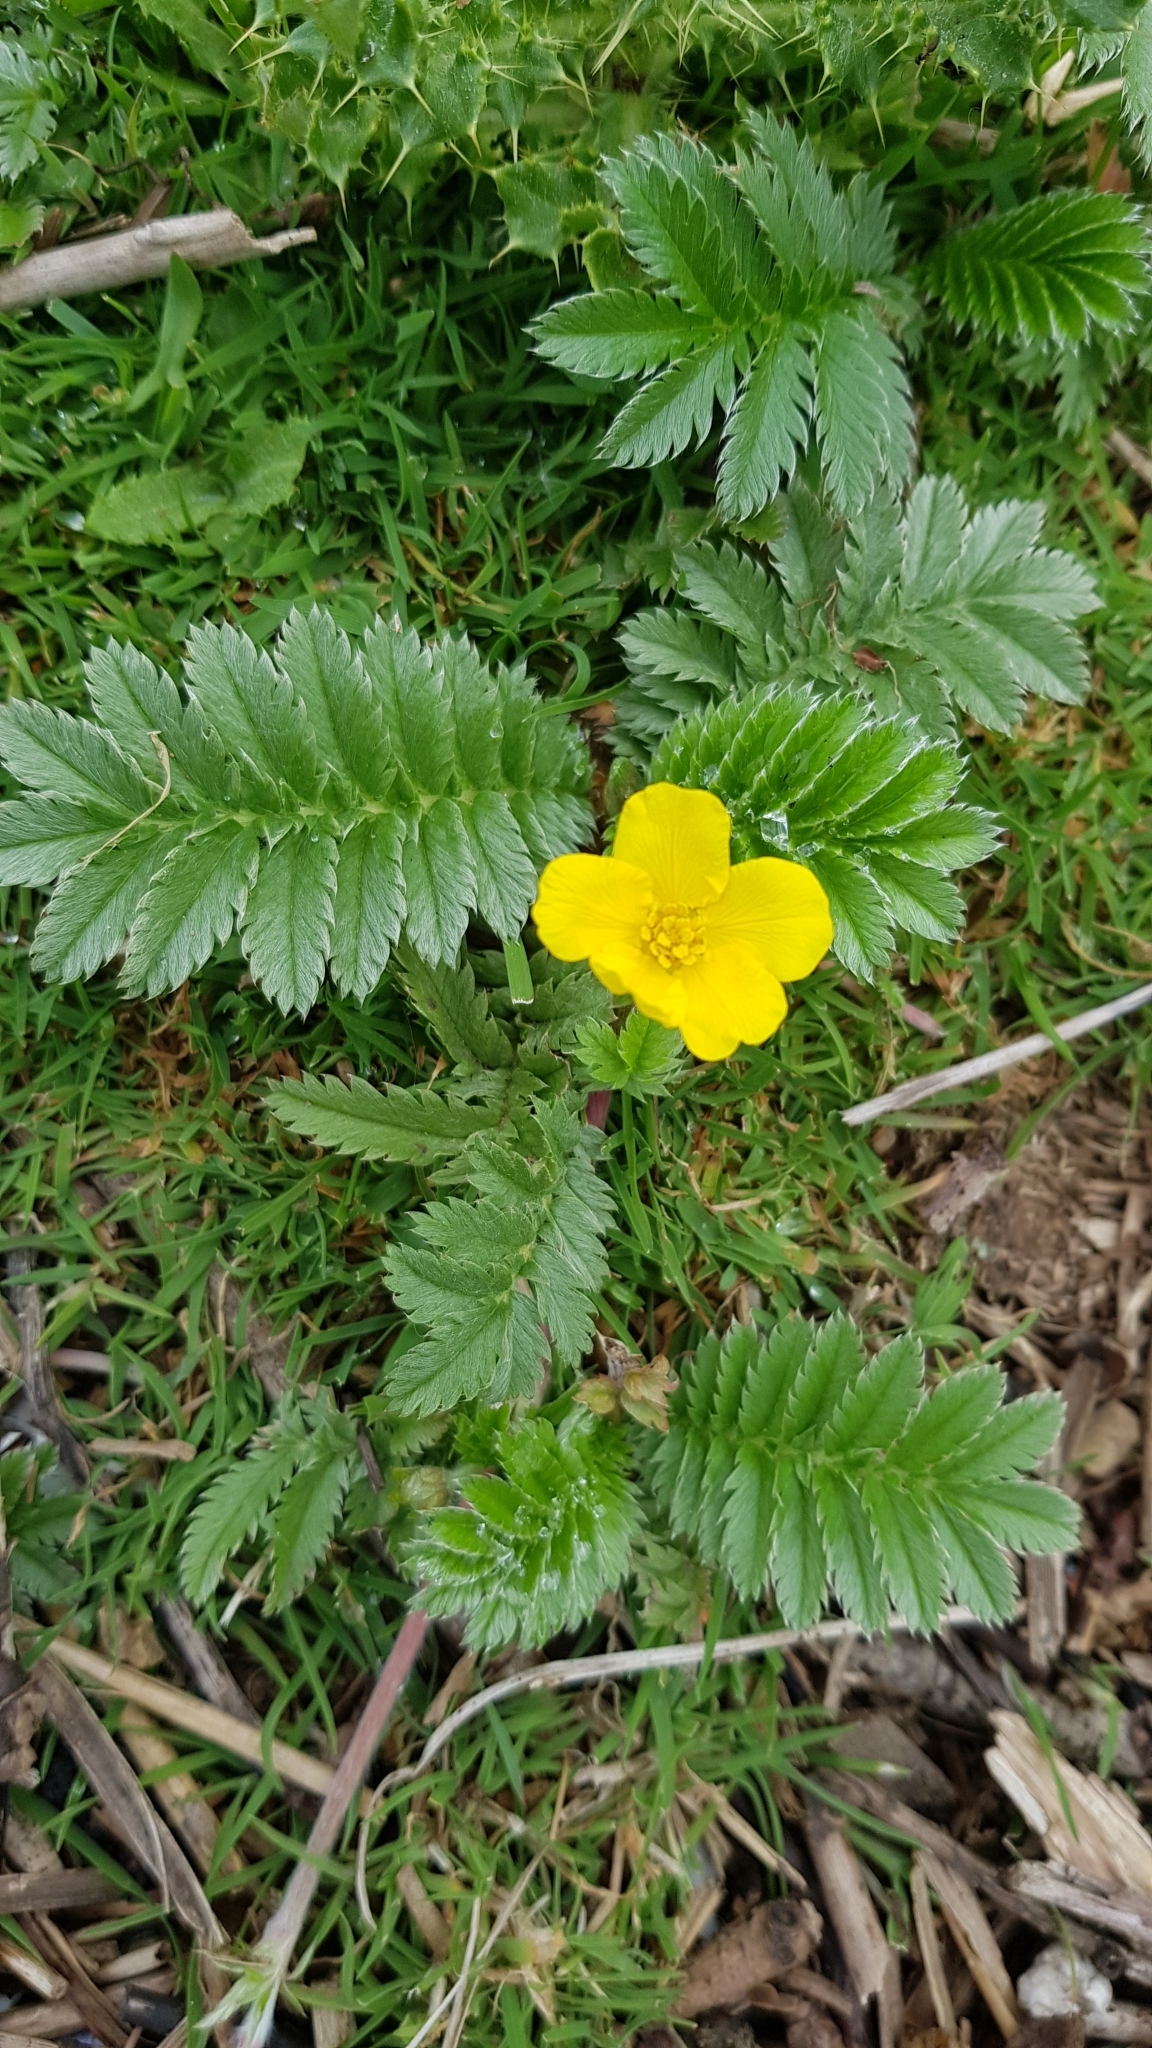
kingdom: Plantae
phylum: Tracheophyta
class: Magnoliopsida
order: Rosales
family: Rosaceae
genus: Argentina
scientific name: Argentina anserina
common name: Common silverweed
